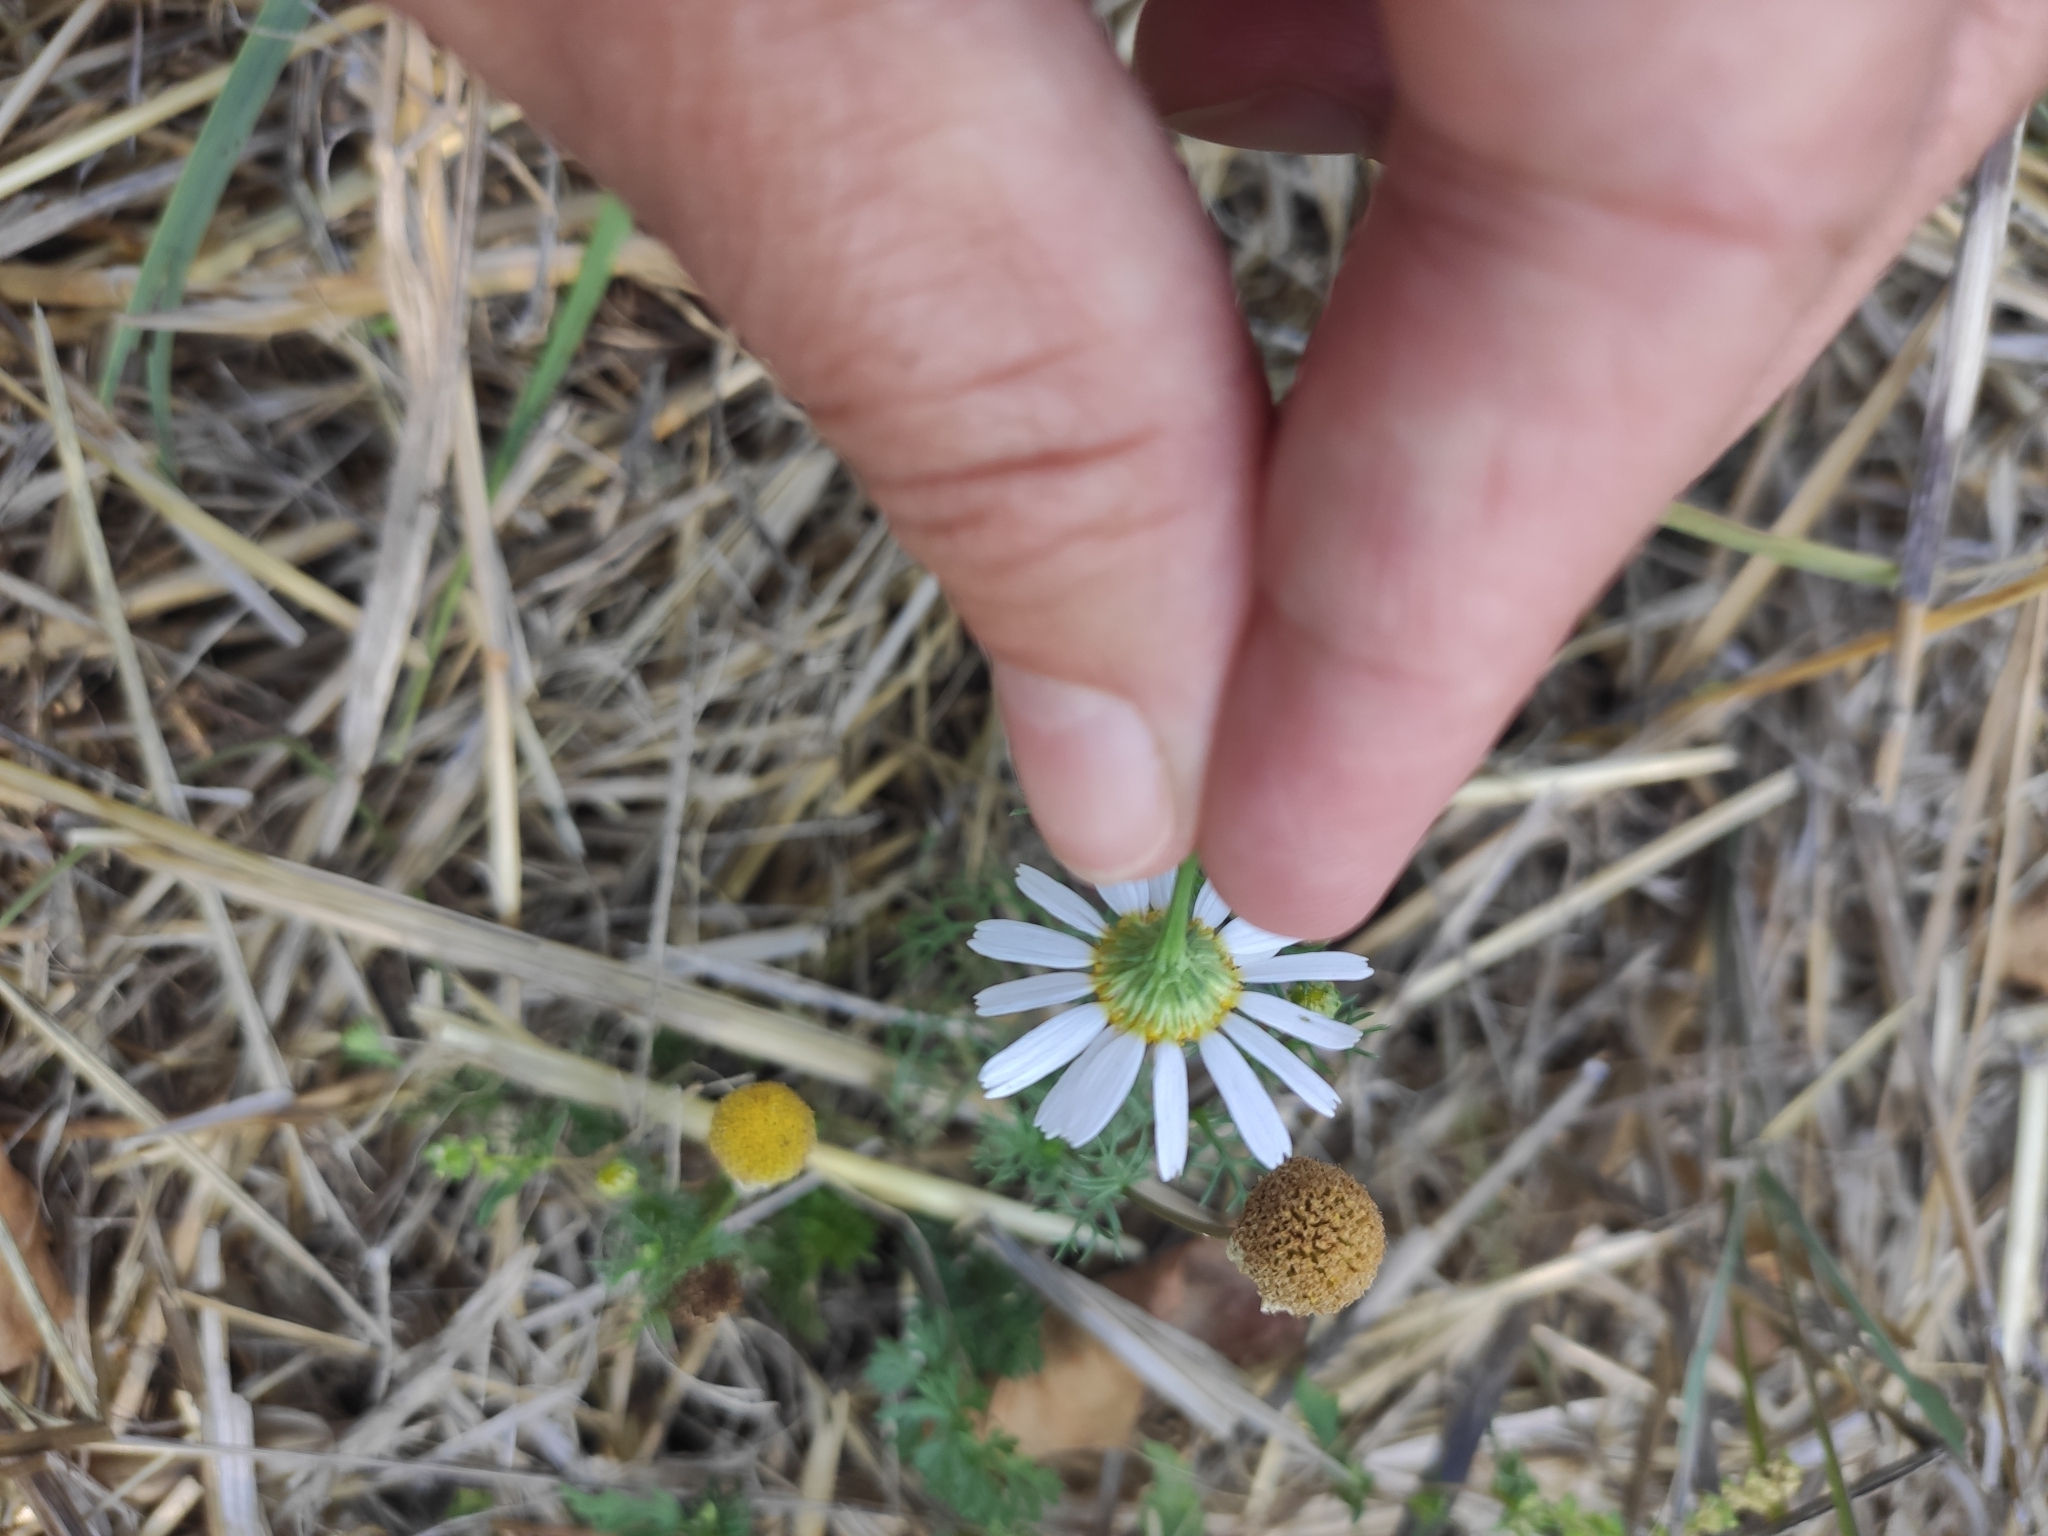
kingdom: Plantae
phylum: Tracheophyta
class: Magnoliopsida
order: Asterales
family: Asteraceae
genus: Tripleurospermum
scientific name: Tripleurospermum inodorum
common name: Scentless mayweed
